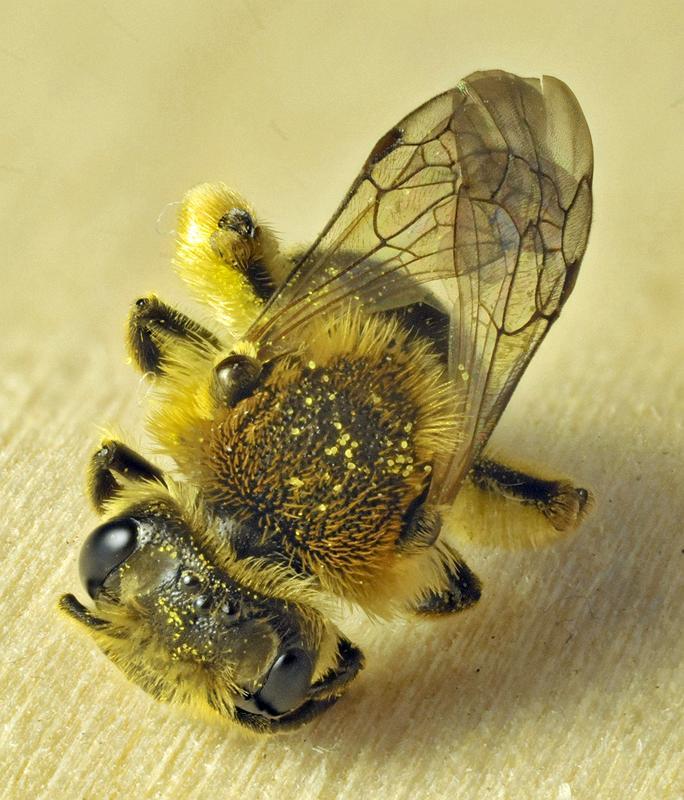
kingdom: Animalia
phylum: Arthropoda
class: Insecta
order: Hymenoptera
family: Andrenidae
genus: Andrena
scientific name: Andrena rugosa
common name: Rugose mining bee
